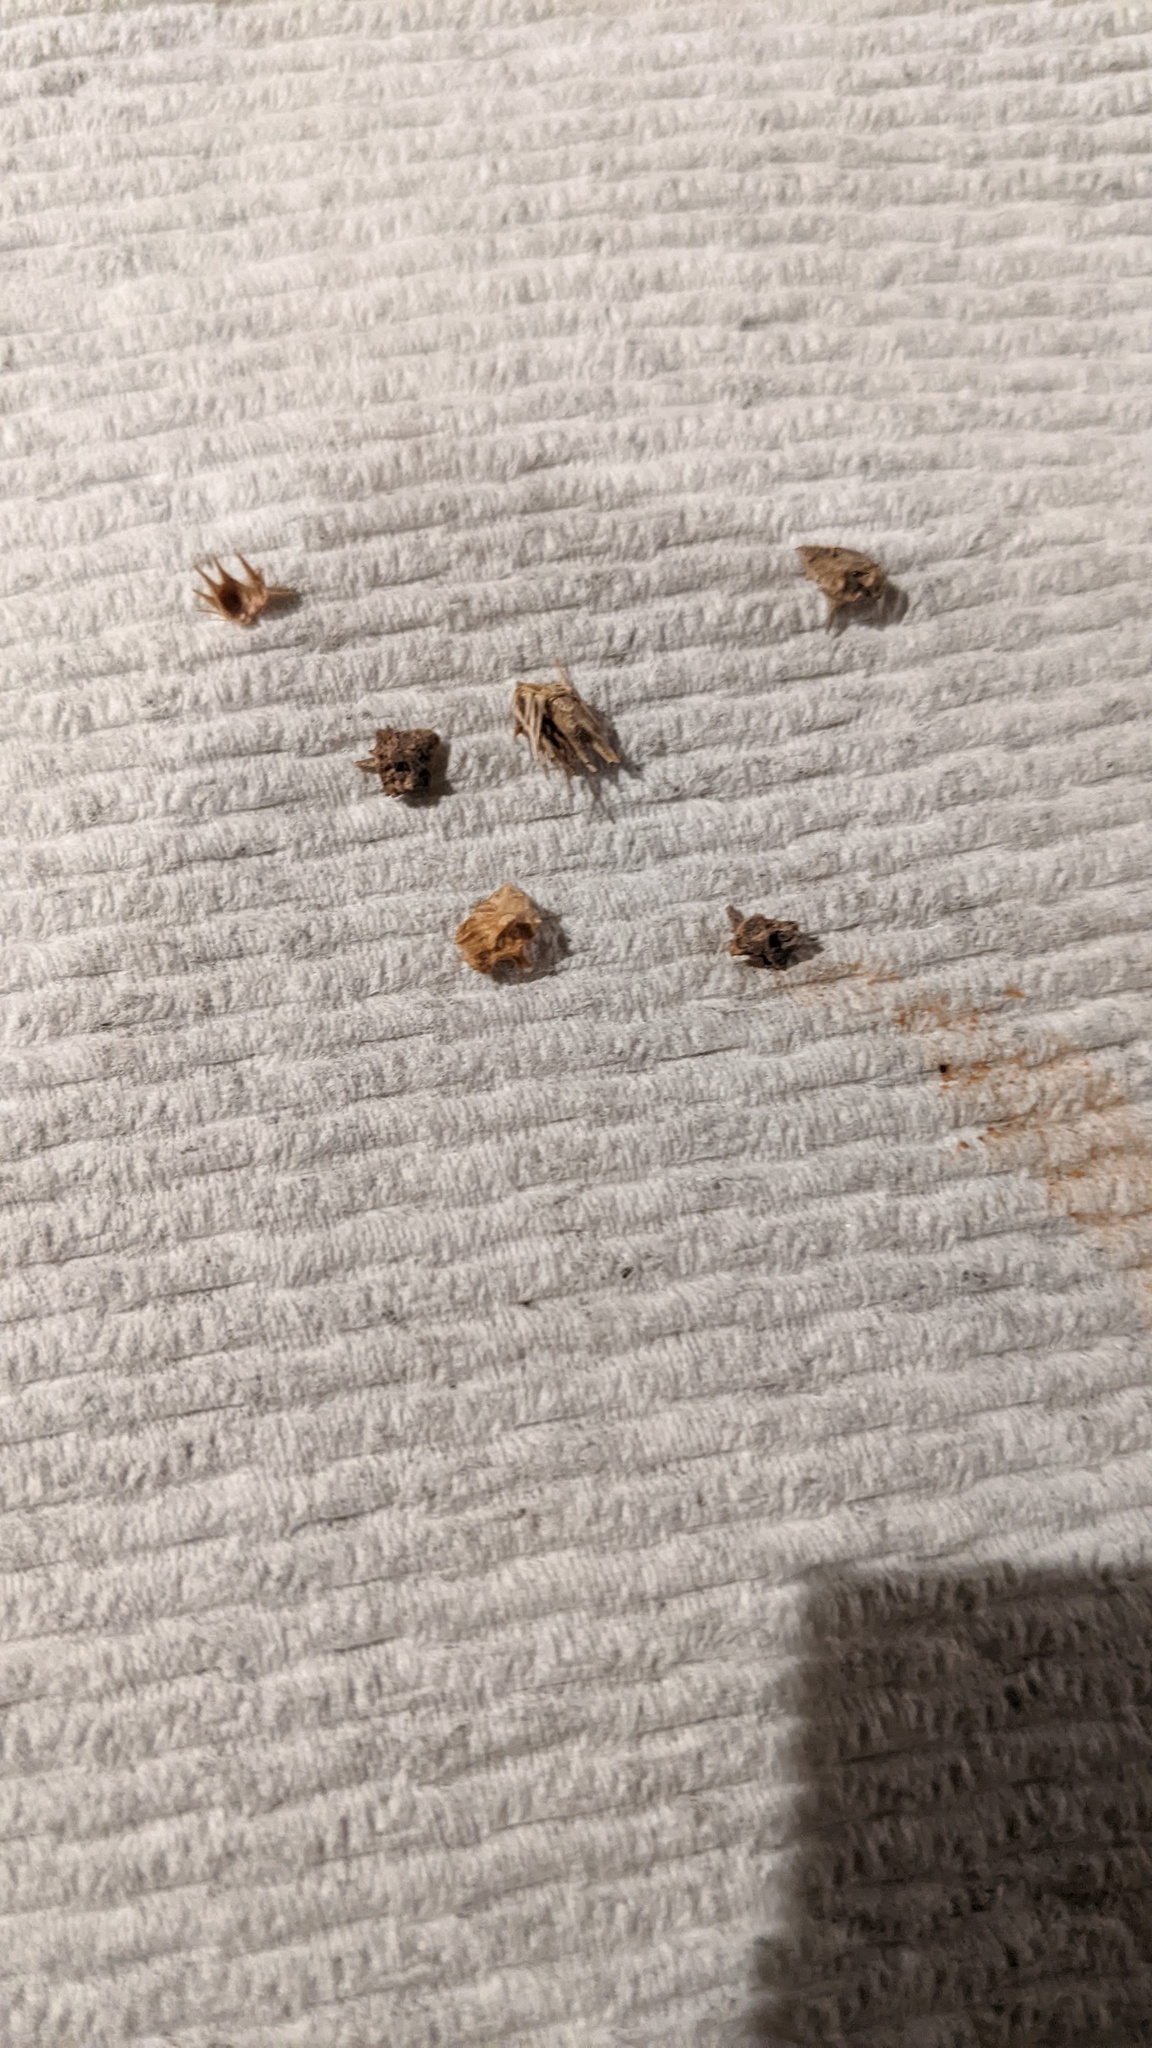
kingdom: Plantae
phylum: Tracheophyta
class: Magnoliopsida
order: Zygophyllales
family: Zygophyllaceae
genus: Tribulus
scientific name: Tribulus terrestris
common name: Puncturevine
